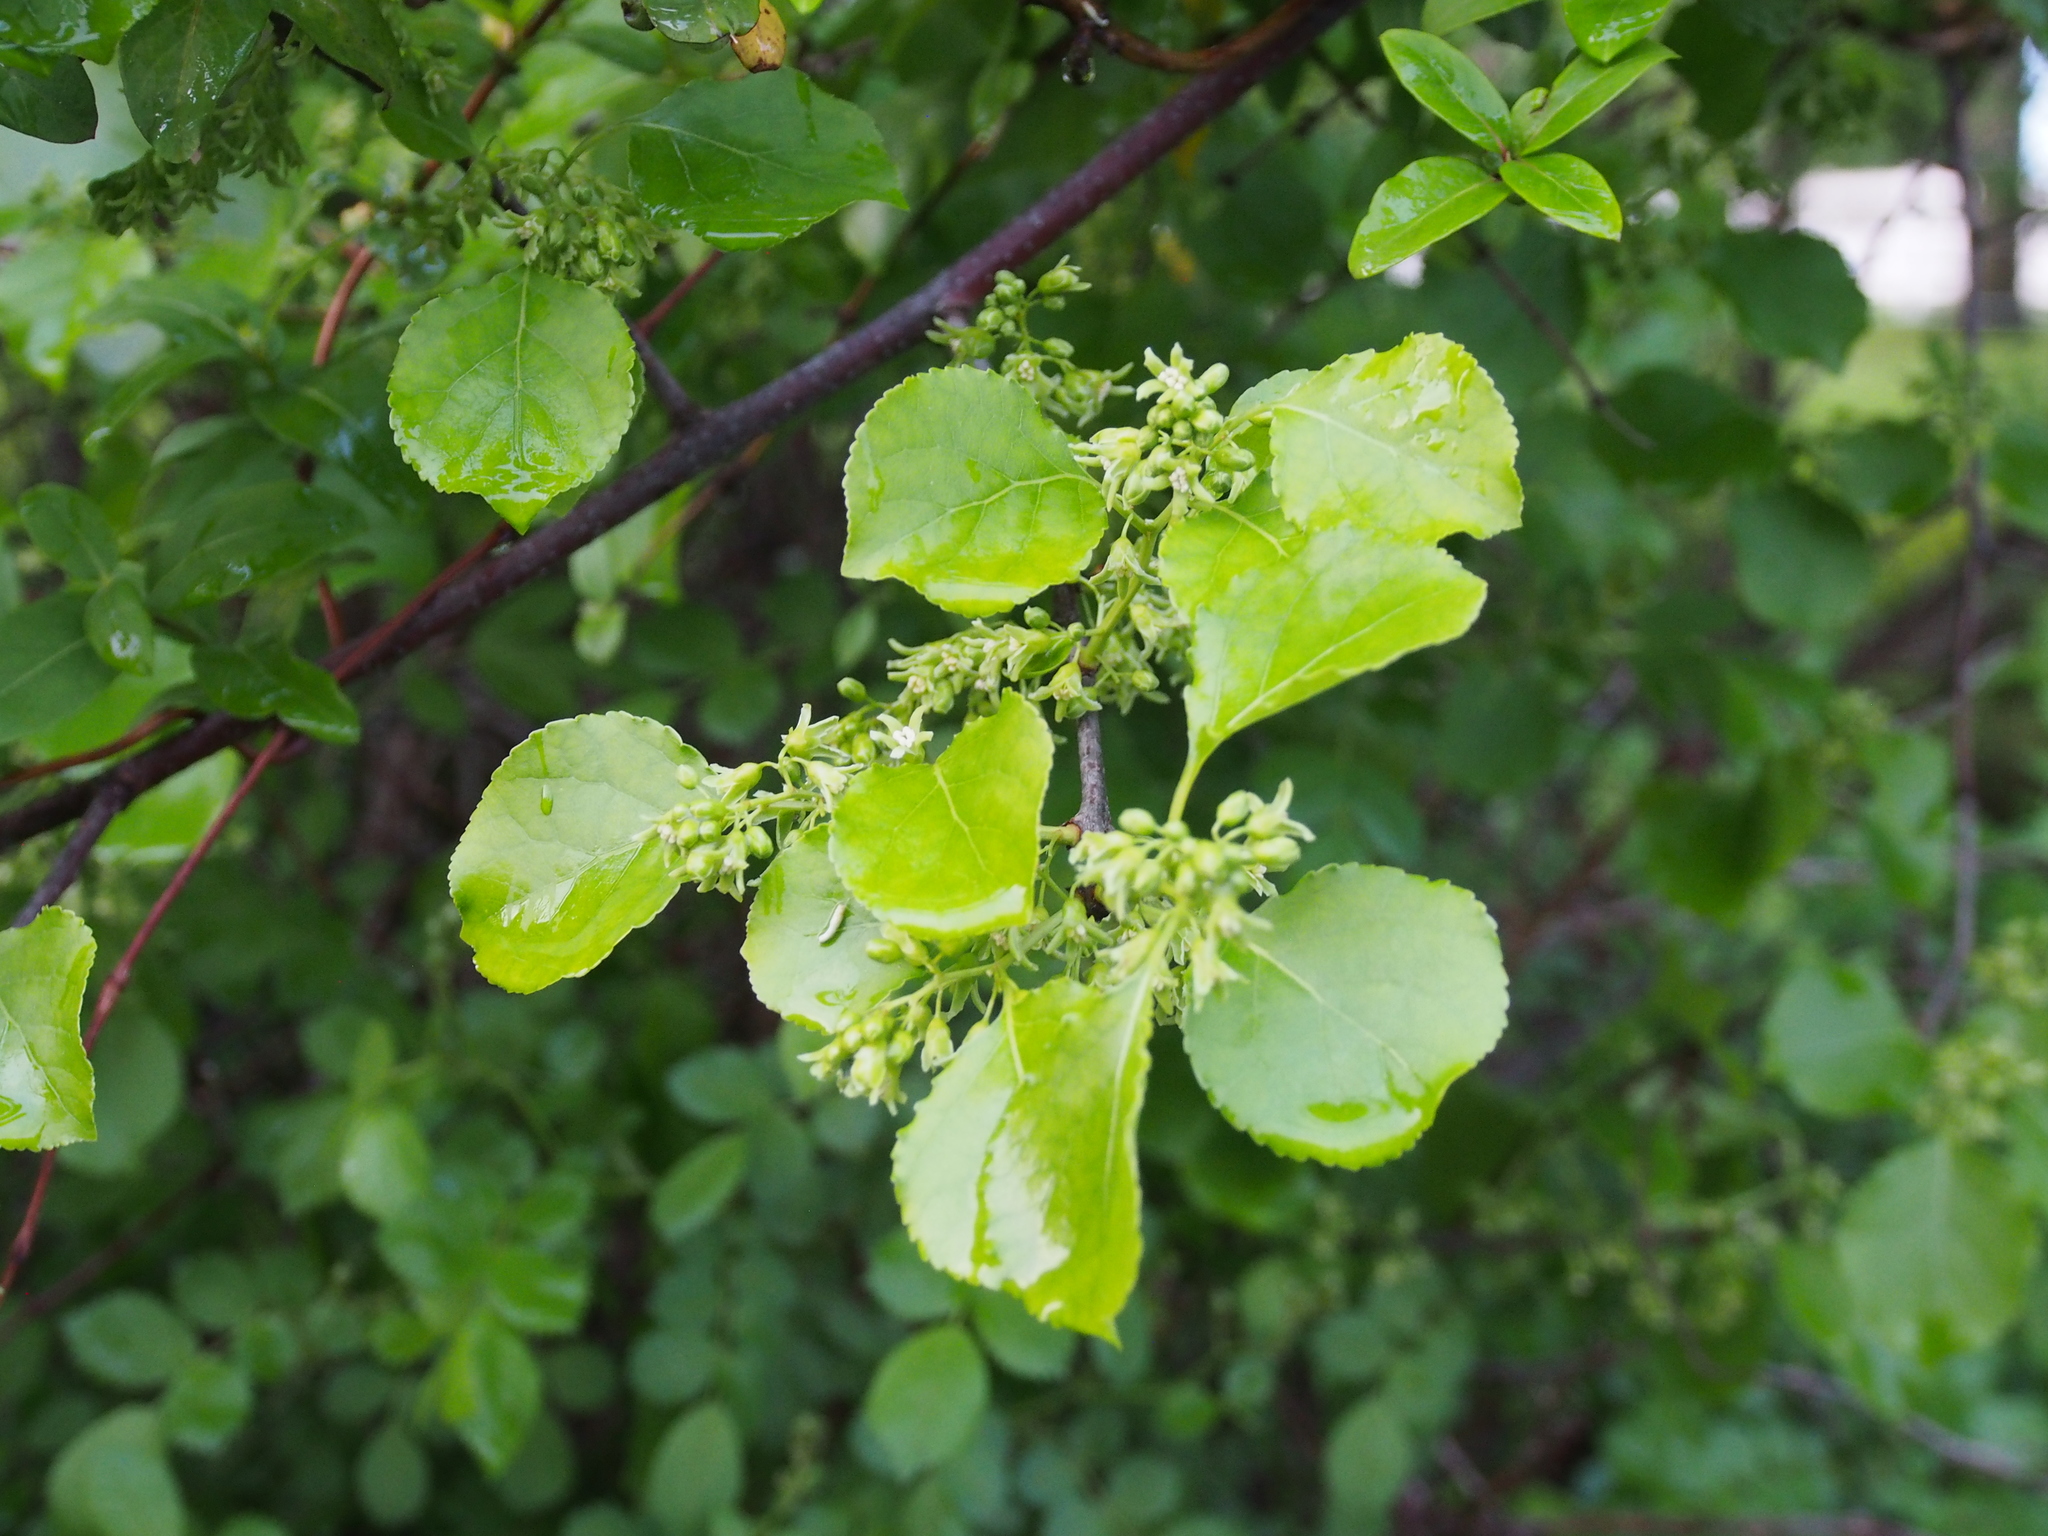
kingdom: Plantae
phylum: Tracheophyta
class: Magnoliopsida
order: Celastrales
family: Celastraceae
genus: Celastrus
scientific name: Celastrus orbiculatus
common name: Oriental bittersweet
